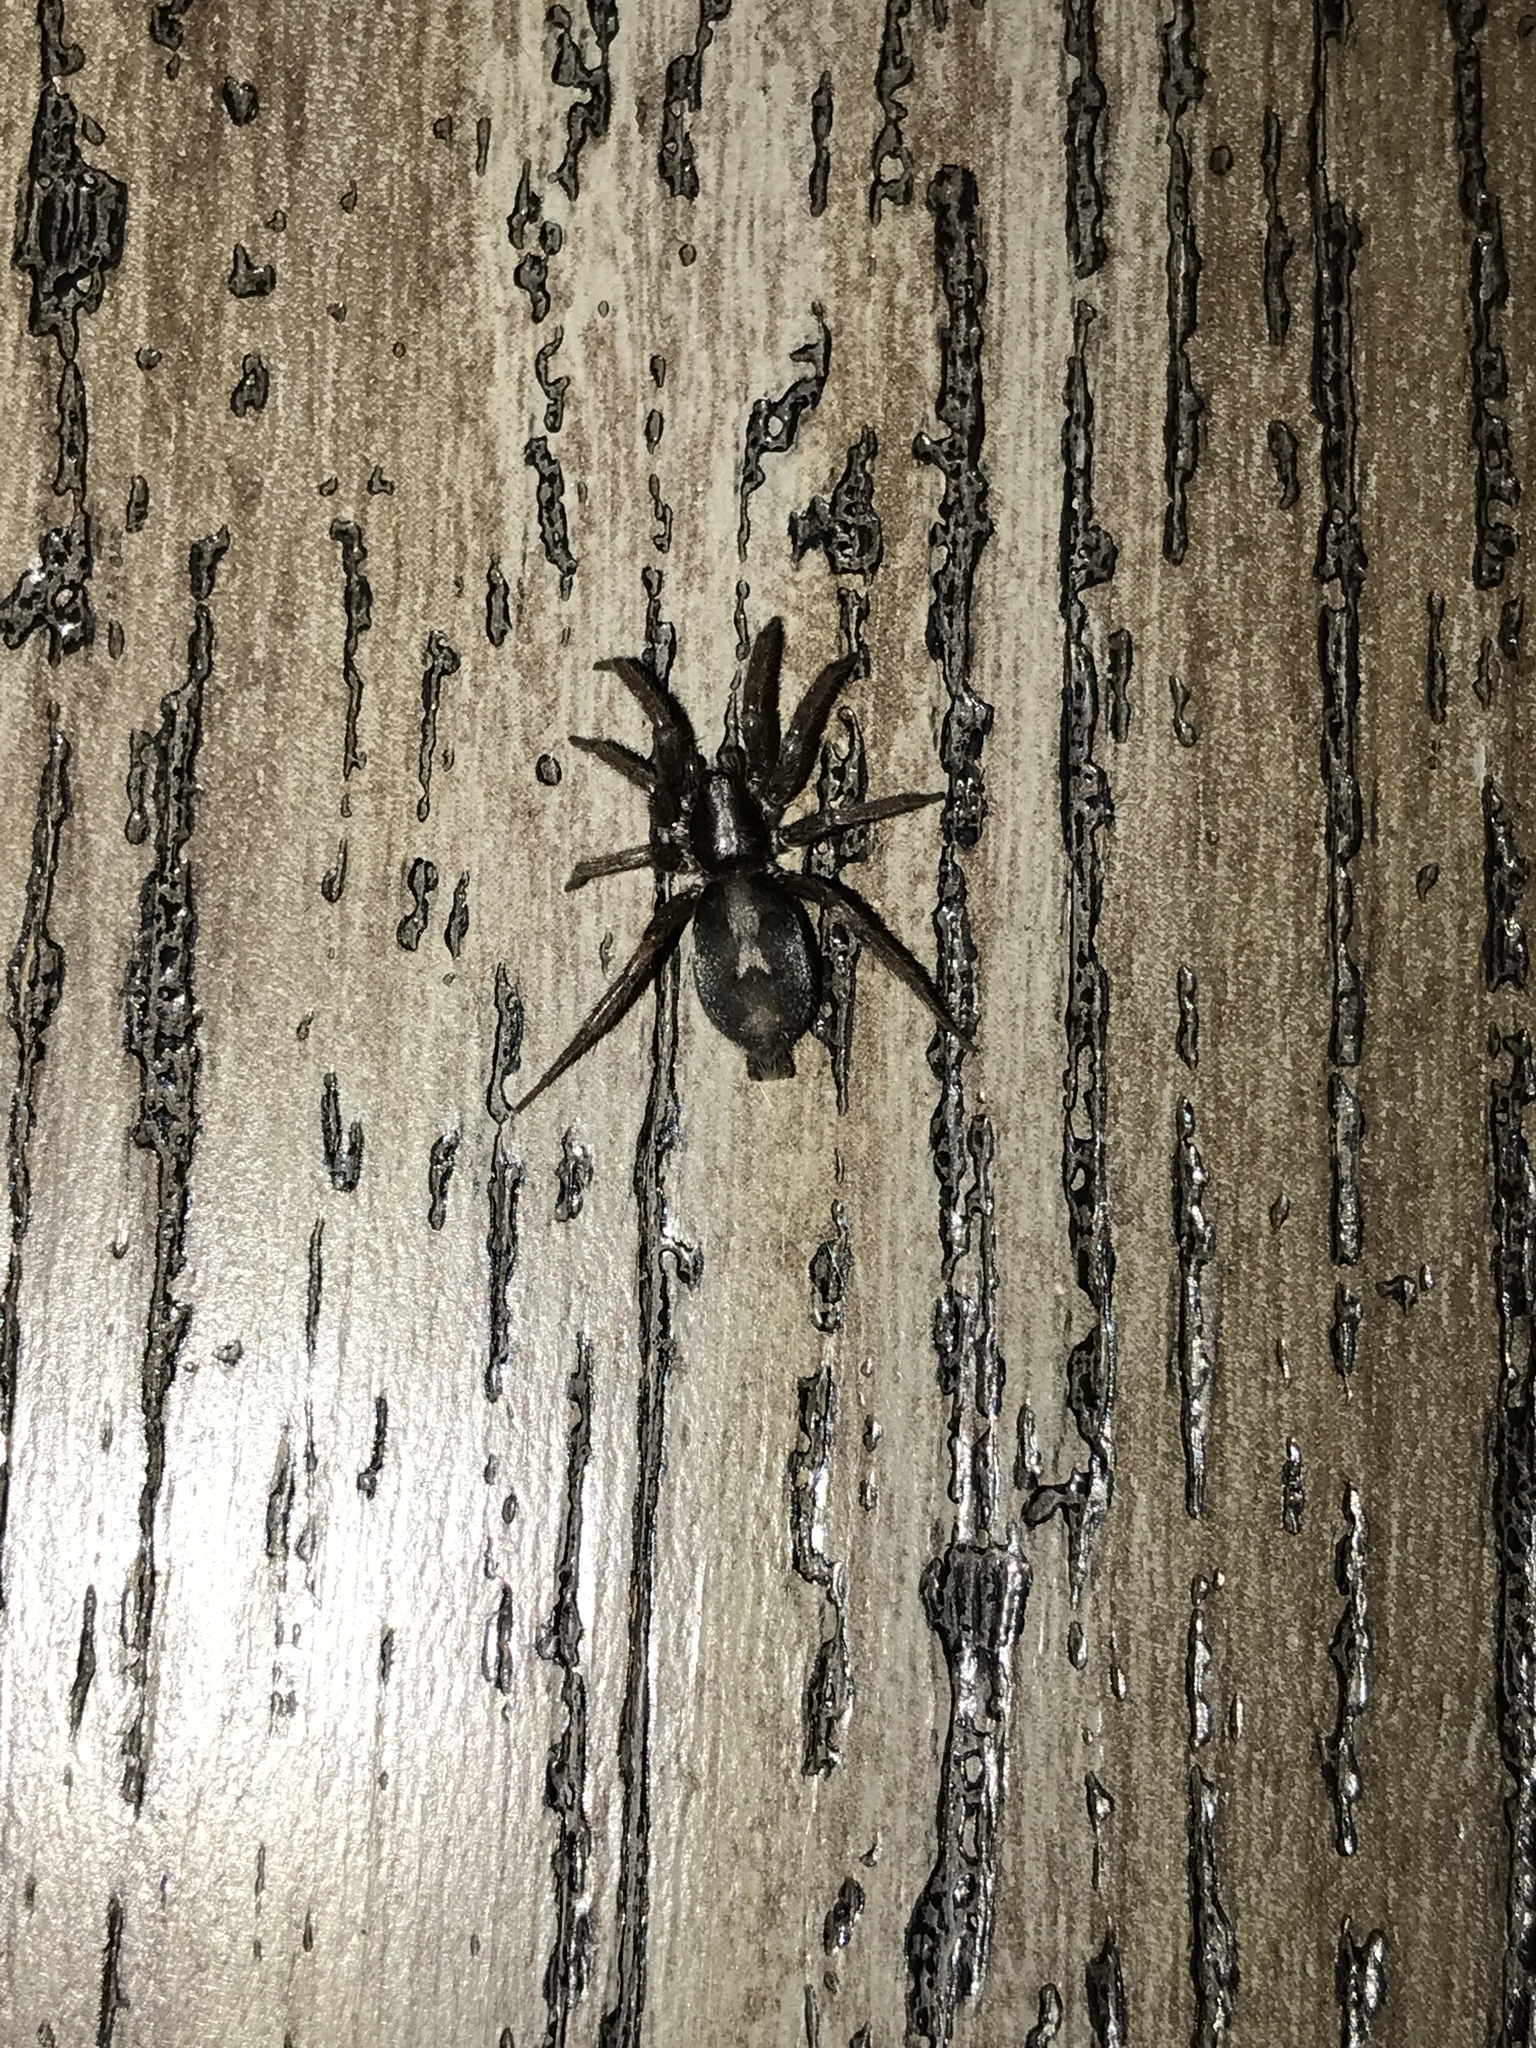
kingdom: Animalia
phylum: Arthropoda
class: Arachnida
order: Araneae
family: Gnaphosidae
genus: Herpyllus
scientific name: Herpyllus ecclesiasticus
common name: Eastern parson spider
